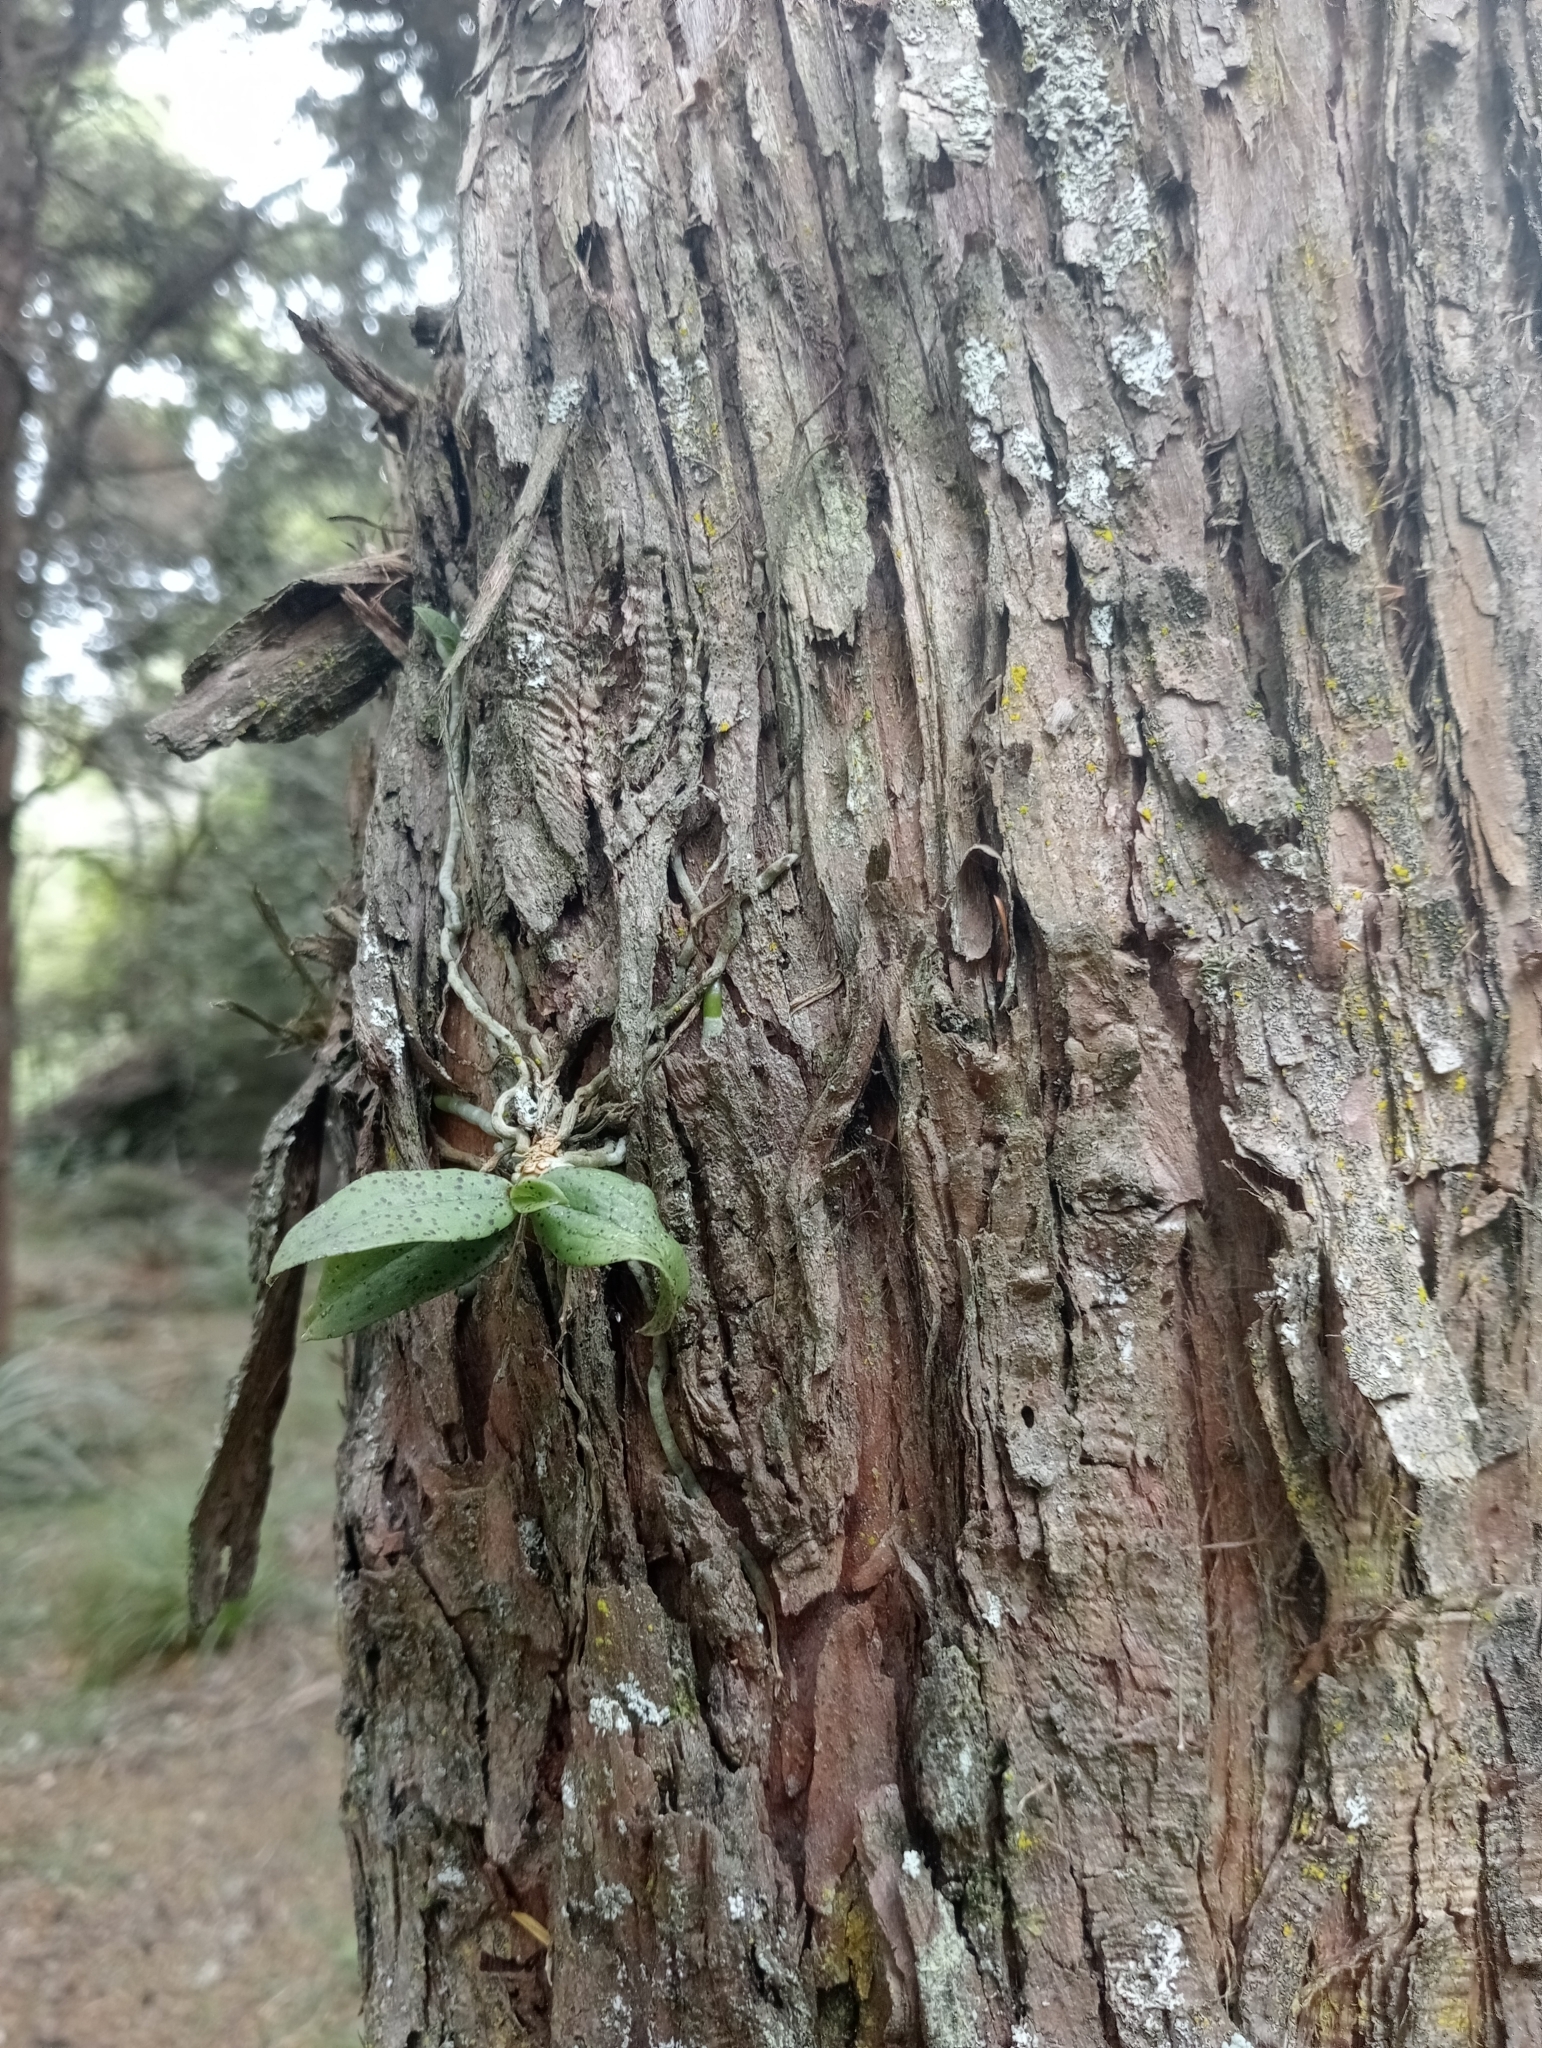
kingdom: Plantae
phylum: Tracheophyta
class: Liliopsida
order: Asparagales
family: Orchidaceae
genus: Drymoanthus
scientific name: Drymoanthus flavus
